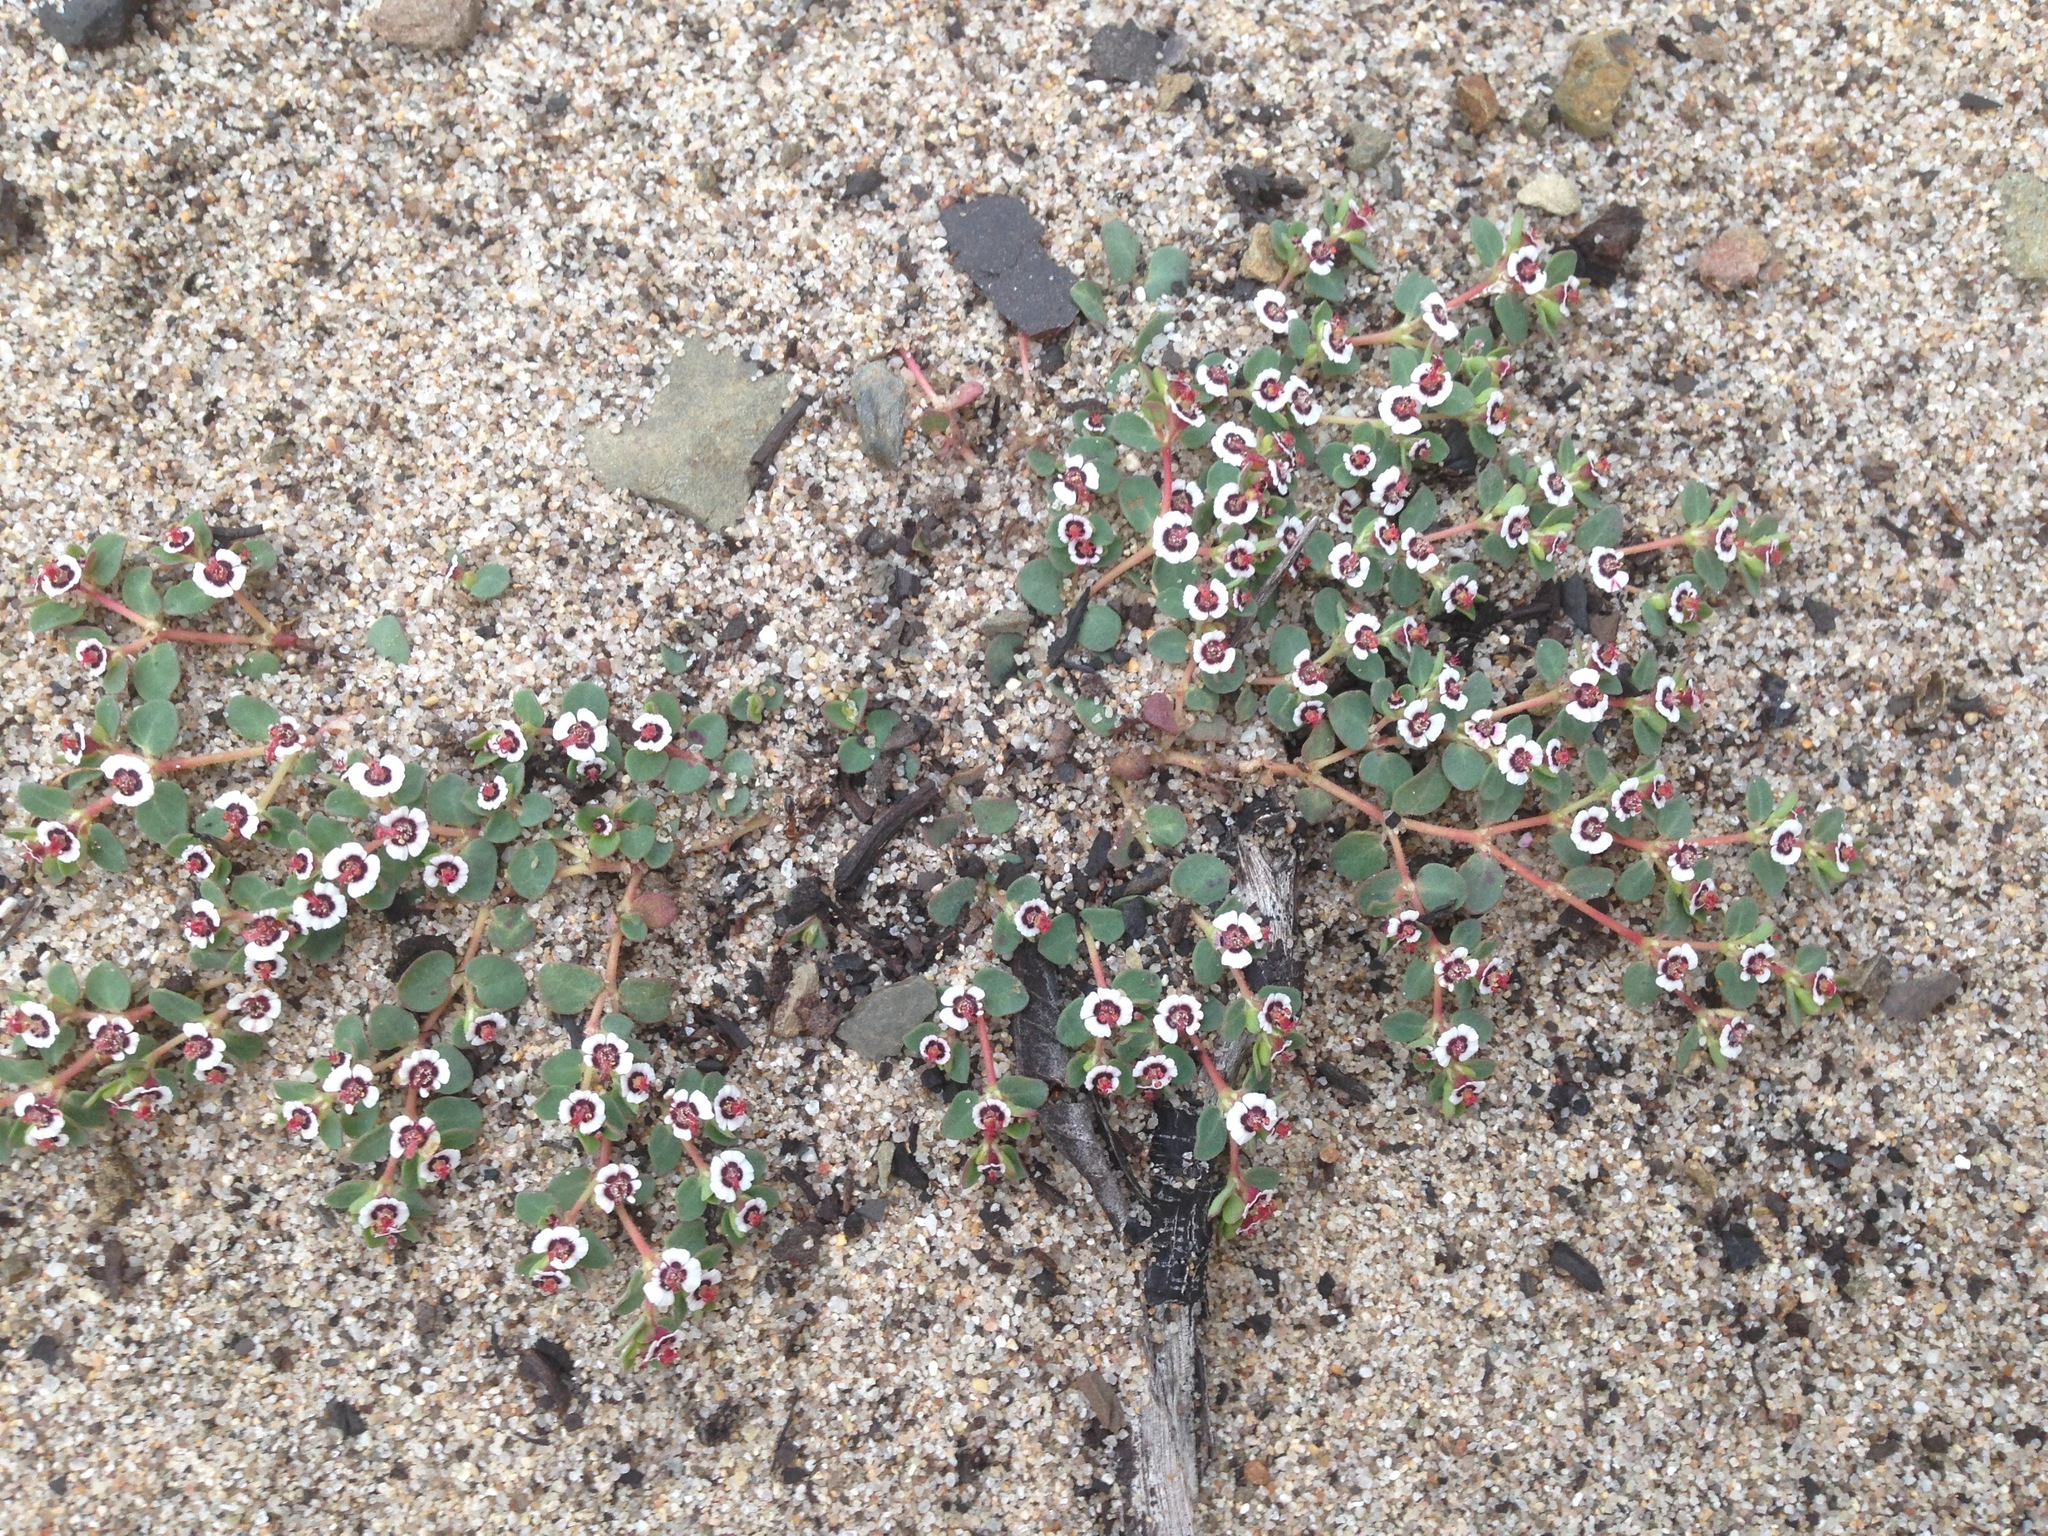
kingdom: Plantae
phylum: Tracheophyta
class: Magnoliopsida
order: Malpighiales
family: Euphorbiaceae
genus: Euphorbia
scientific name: Euphorbia polycarpa
